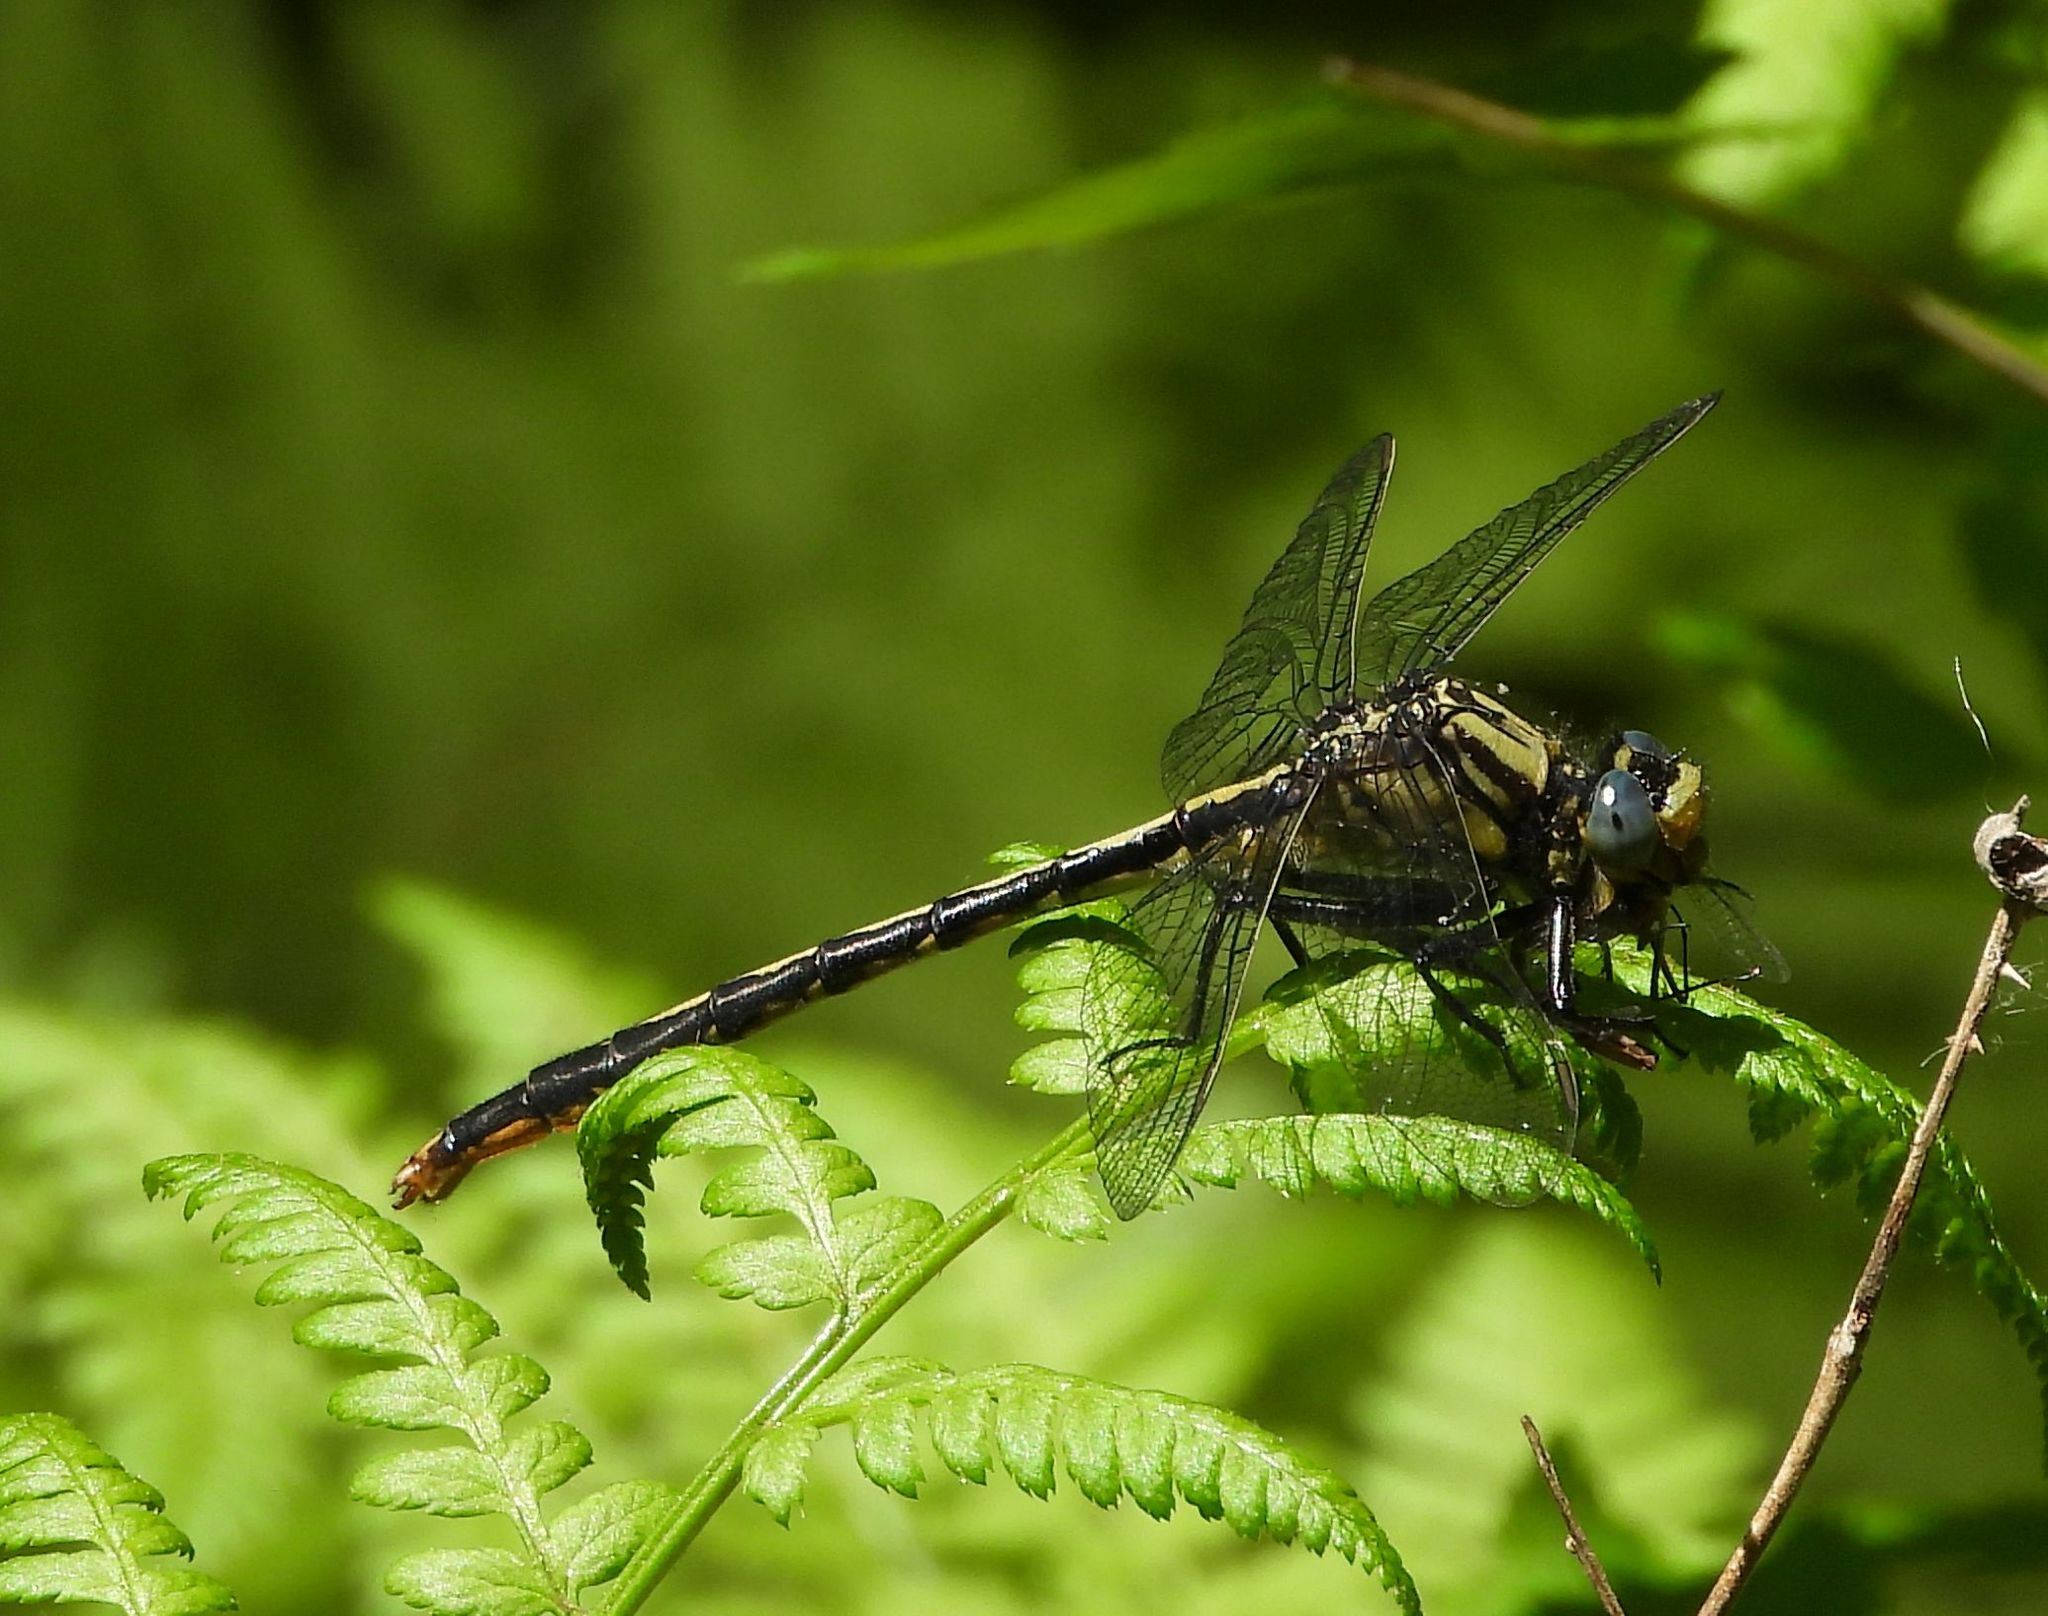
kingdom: Animalia
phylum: Arthropoda
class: Insecta
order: Odonata
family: Gomphidae
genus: Arigomphus
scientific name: Arigomphus furcifer
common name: Lilypad clubtail
